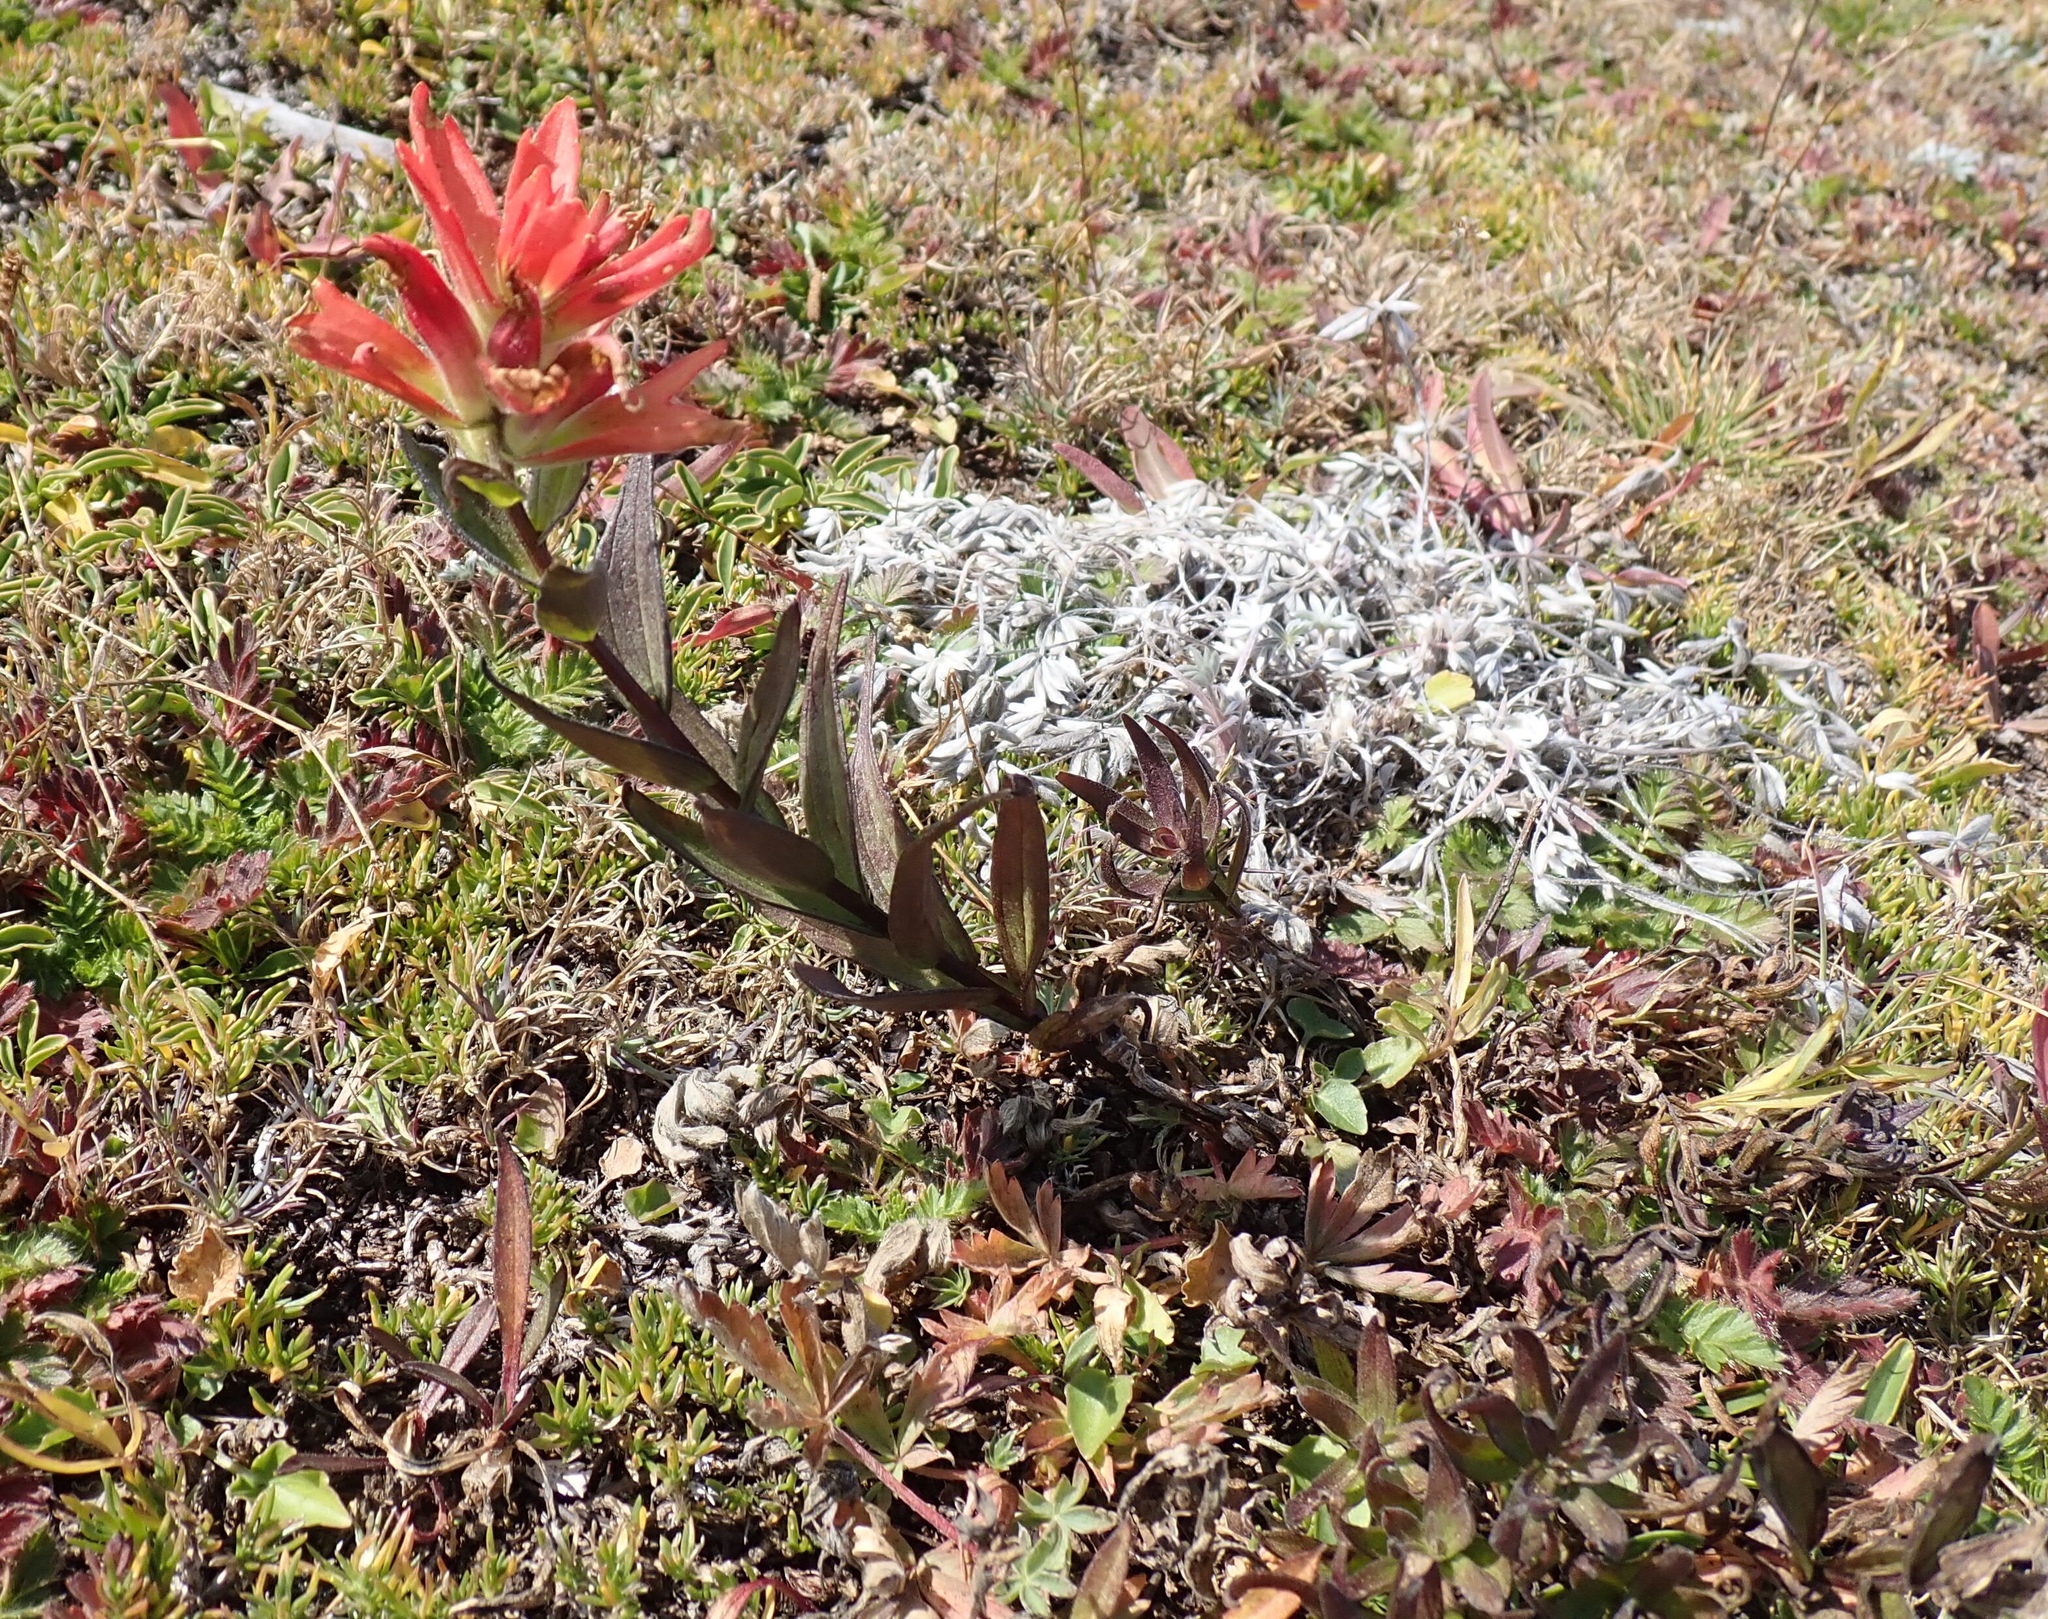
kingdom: Plantae
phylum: Tracheophyta
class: Magnoliopsida
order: Lamiales
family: Orobanchaceae
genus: Castilleja
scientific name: Castilleja miniata
